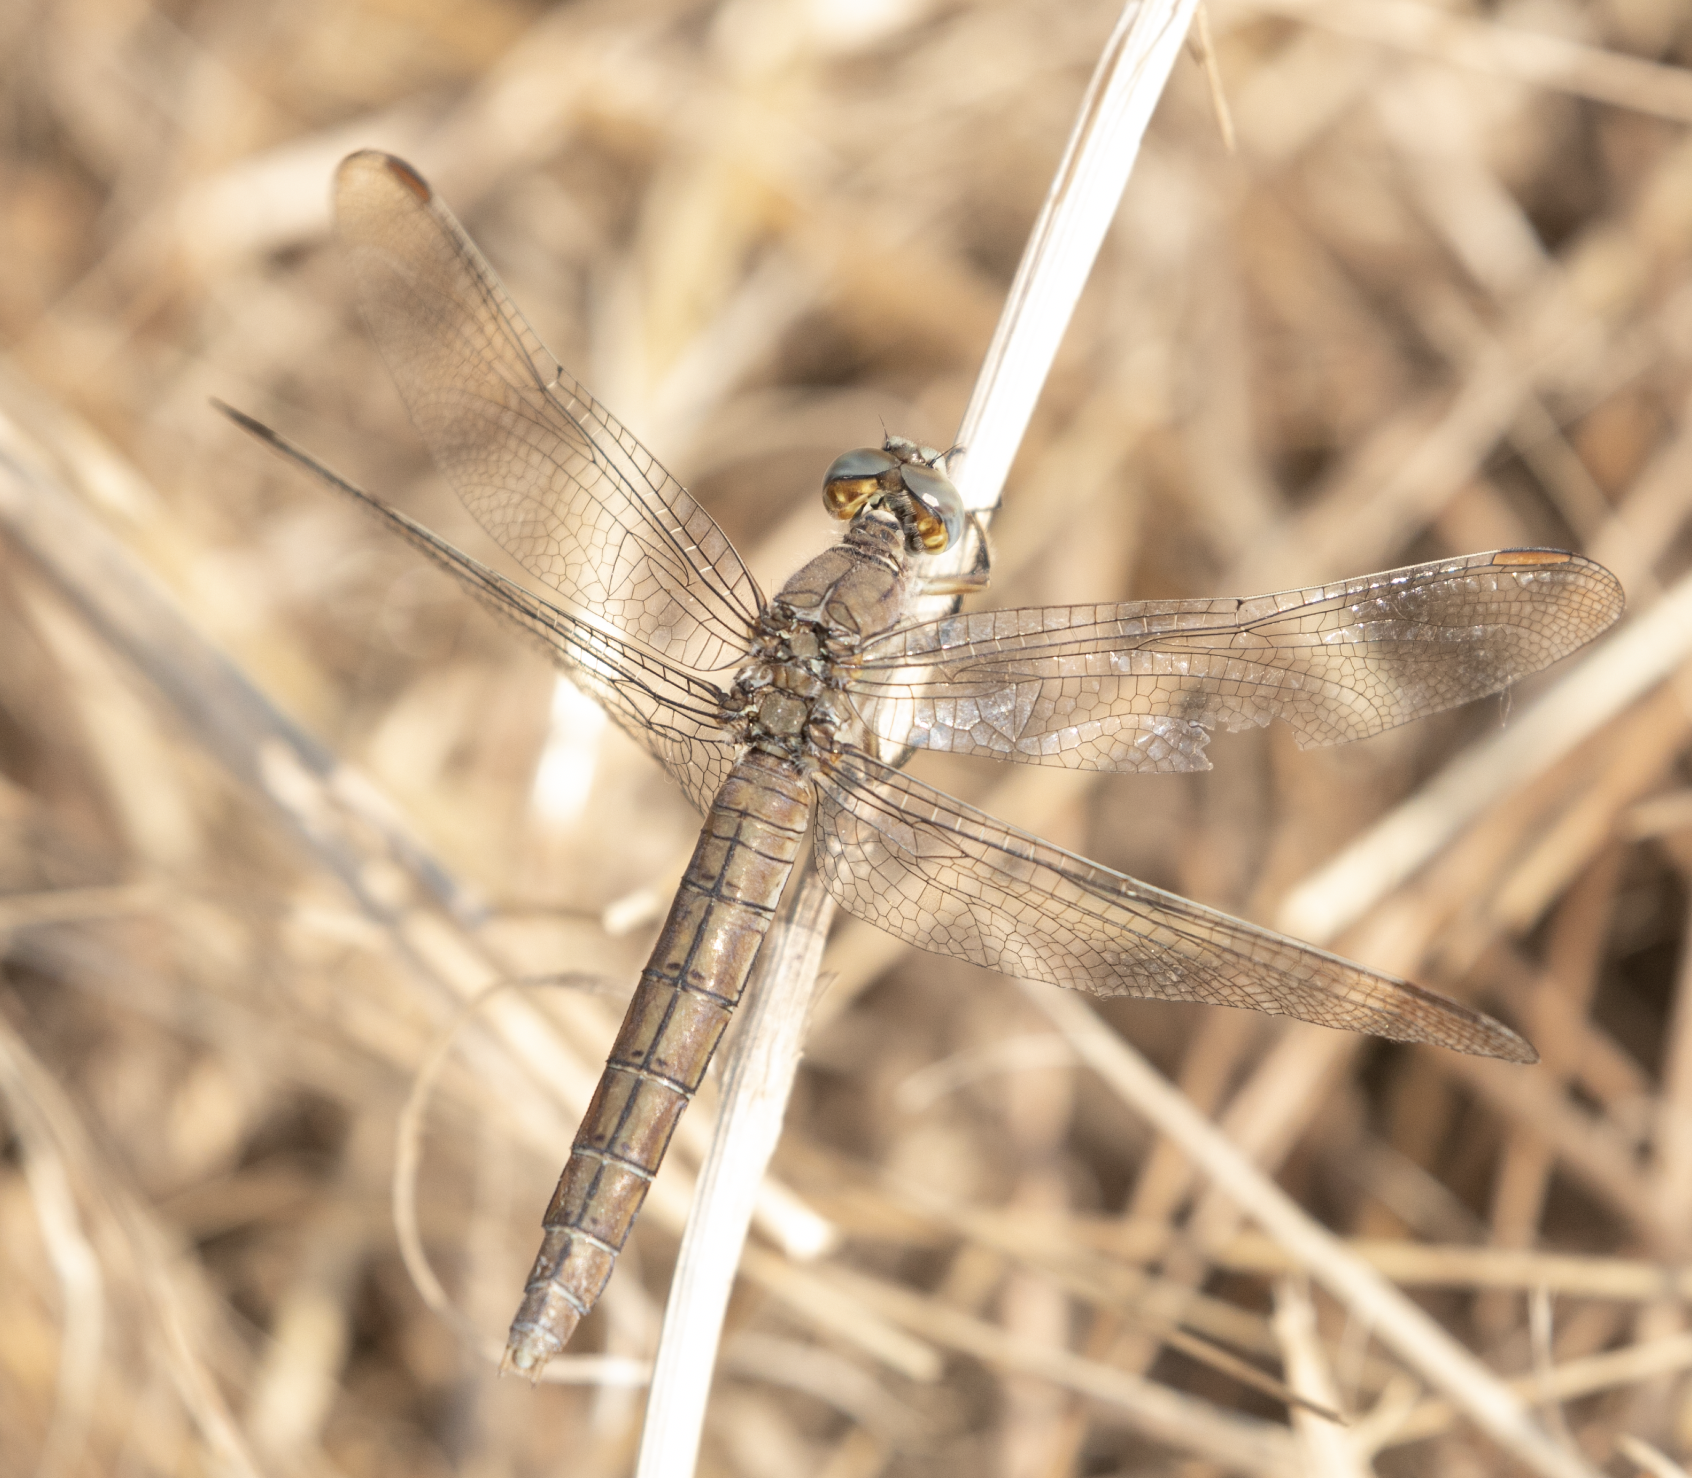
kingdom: Animalia
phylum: Arthropoda
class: Insecta
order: Odonata
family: Libellulidae
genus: Orthetrum
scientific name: Orthetrum brunneum
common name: Southern skimmer
